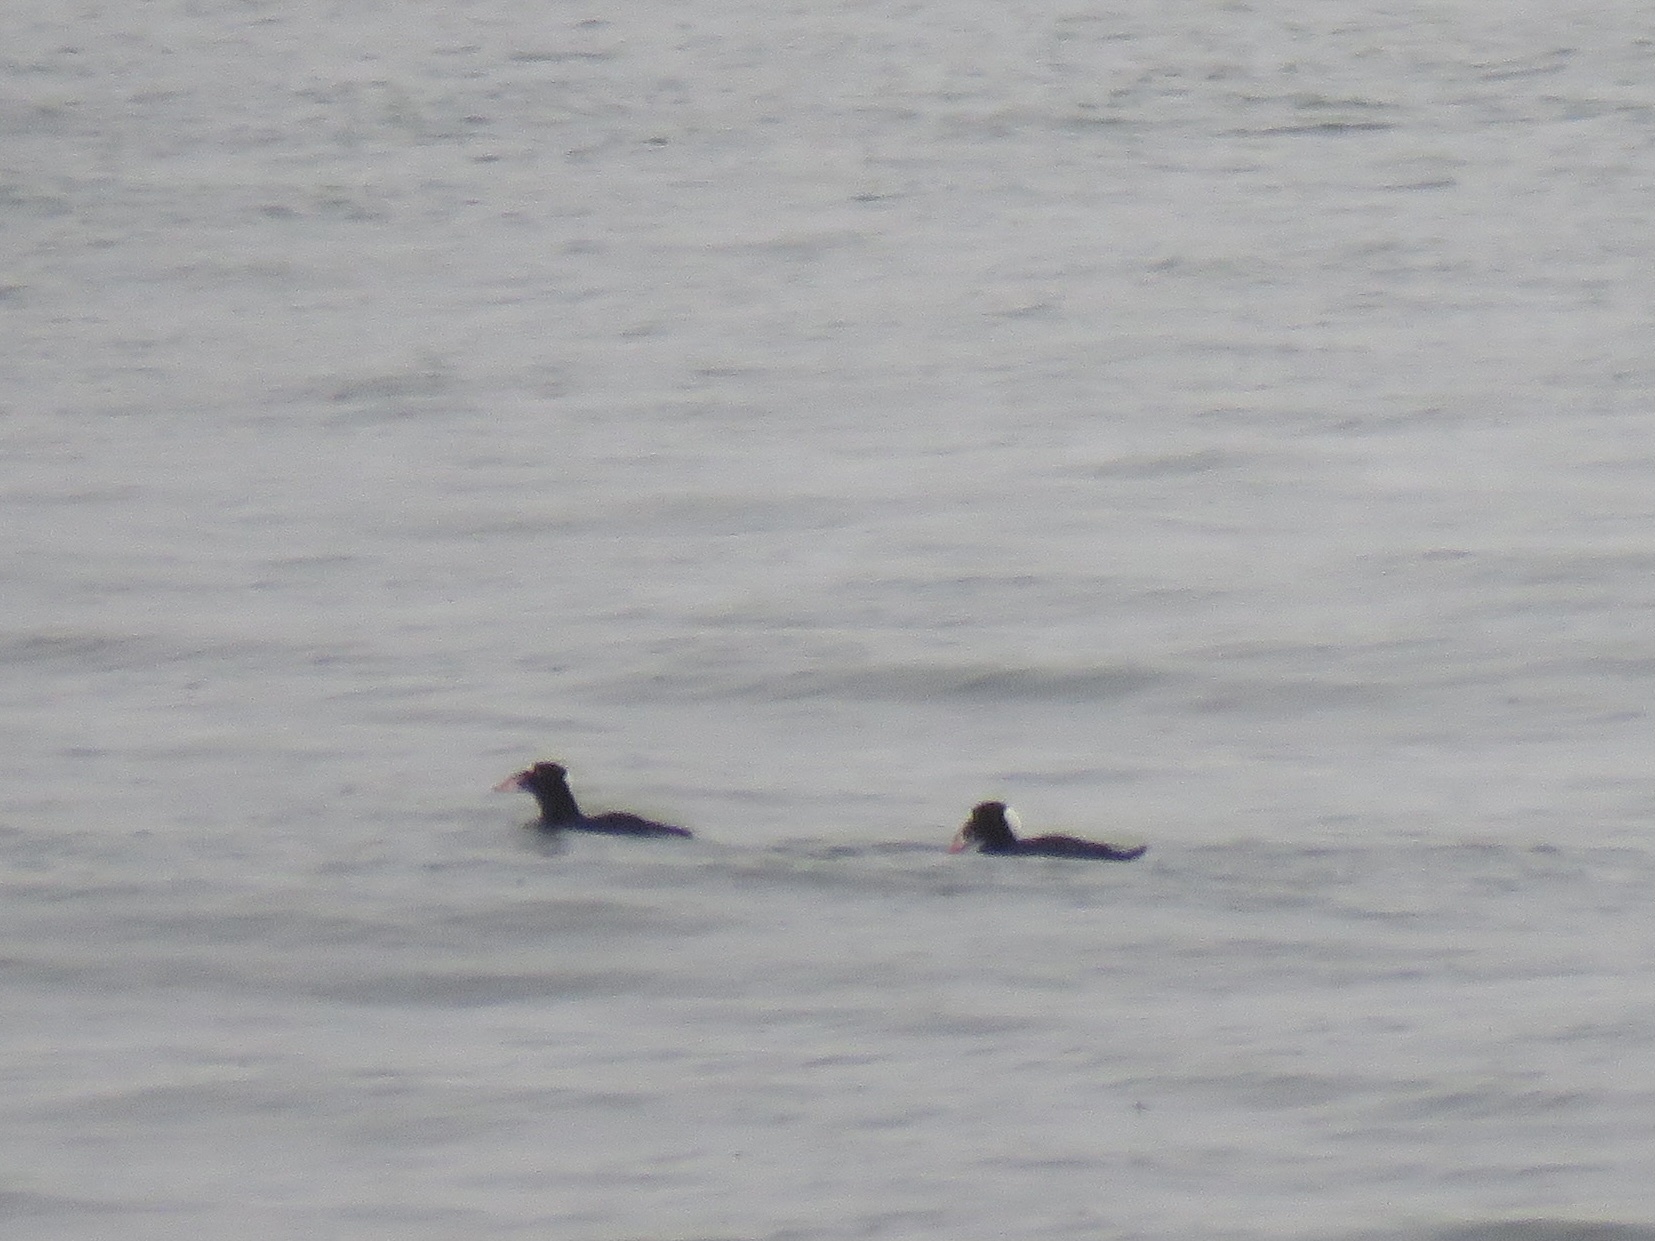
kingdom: Animalia
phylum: Chordata
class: Aves
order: Anseriformes
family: Anatidae
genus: Melanitta
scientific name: Melanitta perspicillata
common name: Surf scoter
